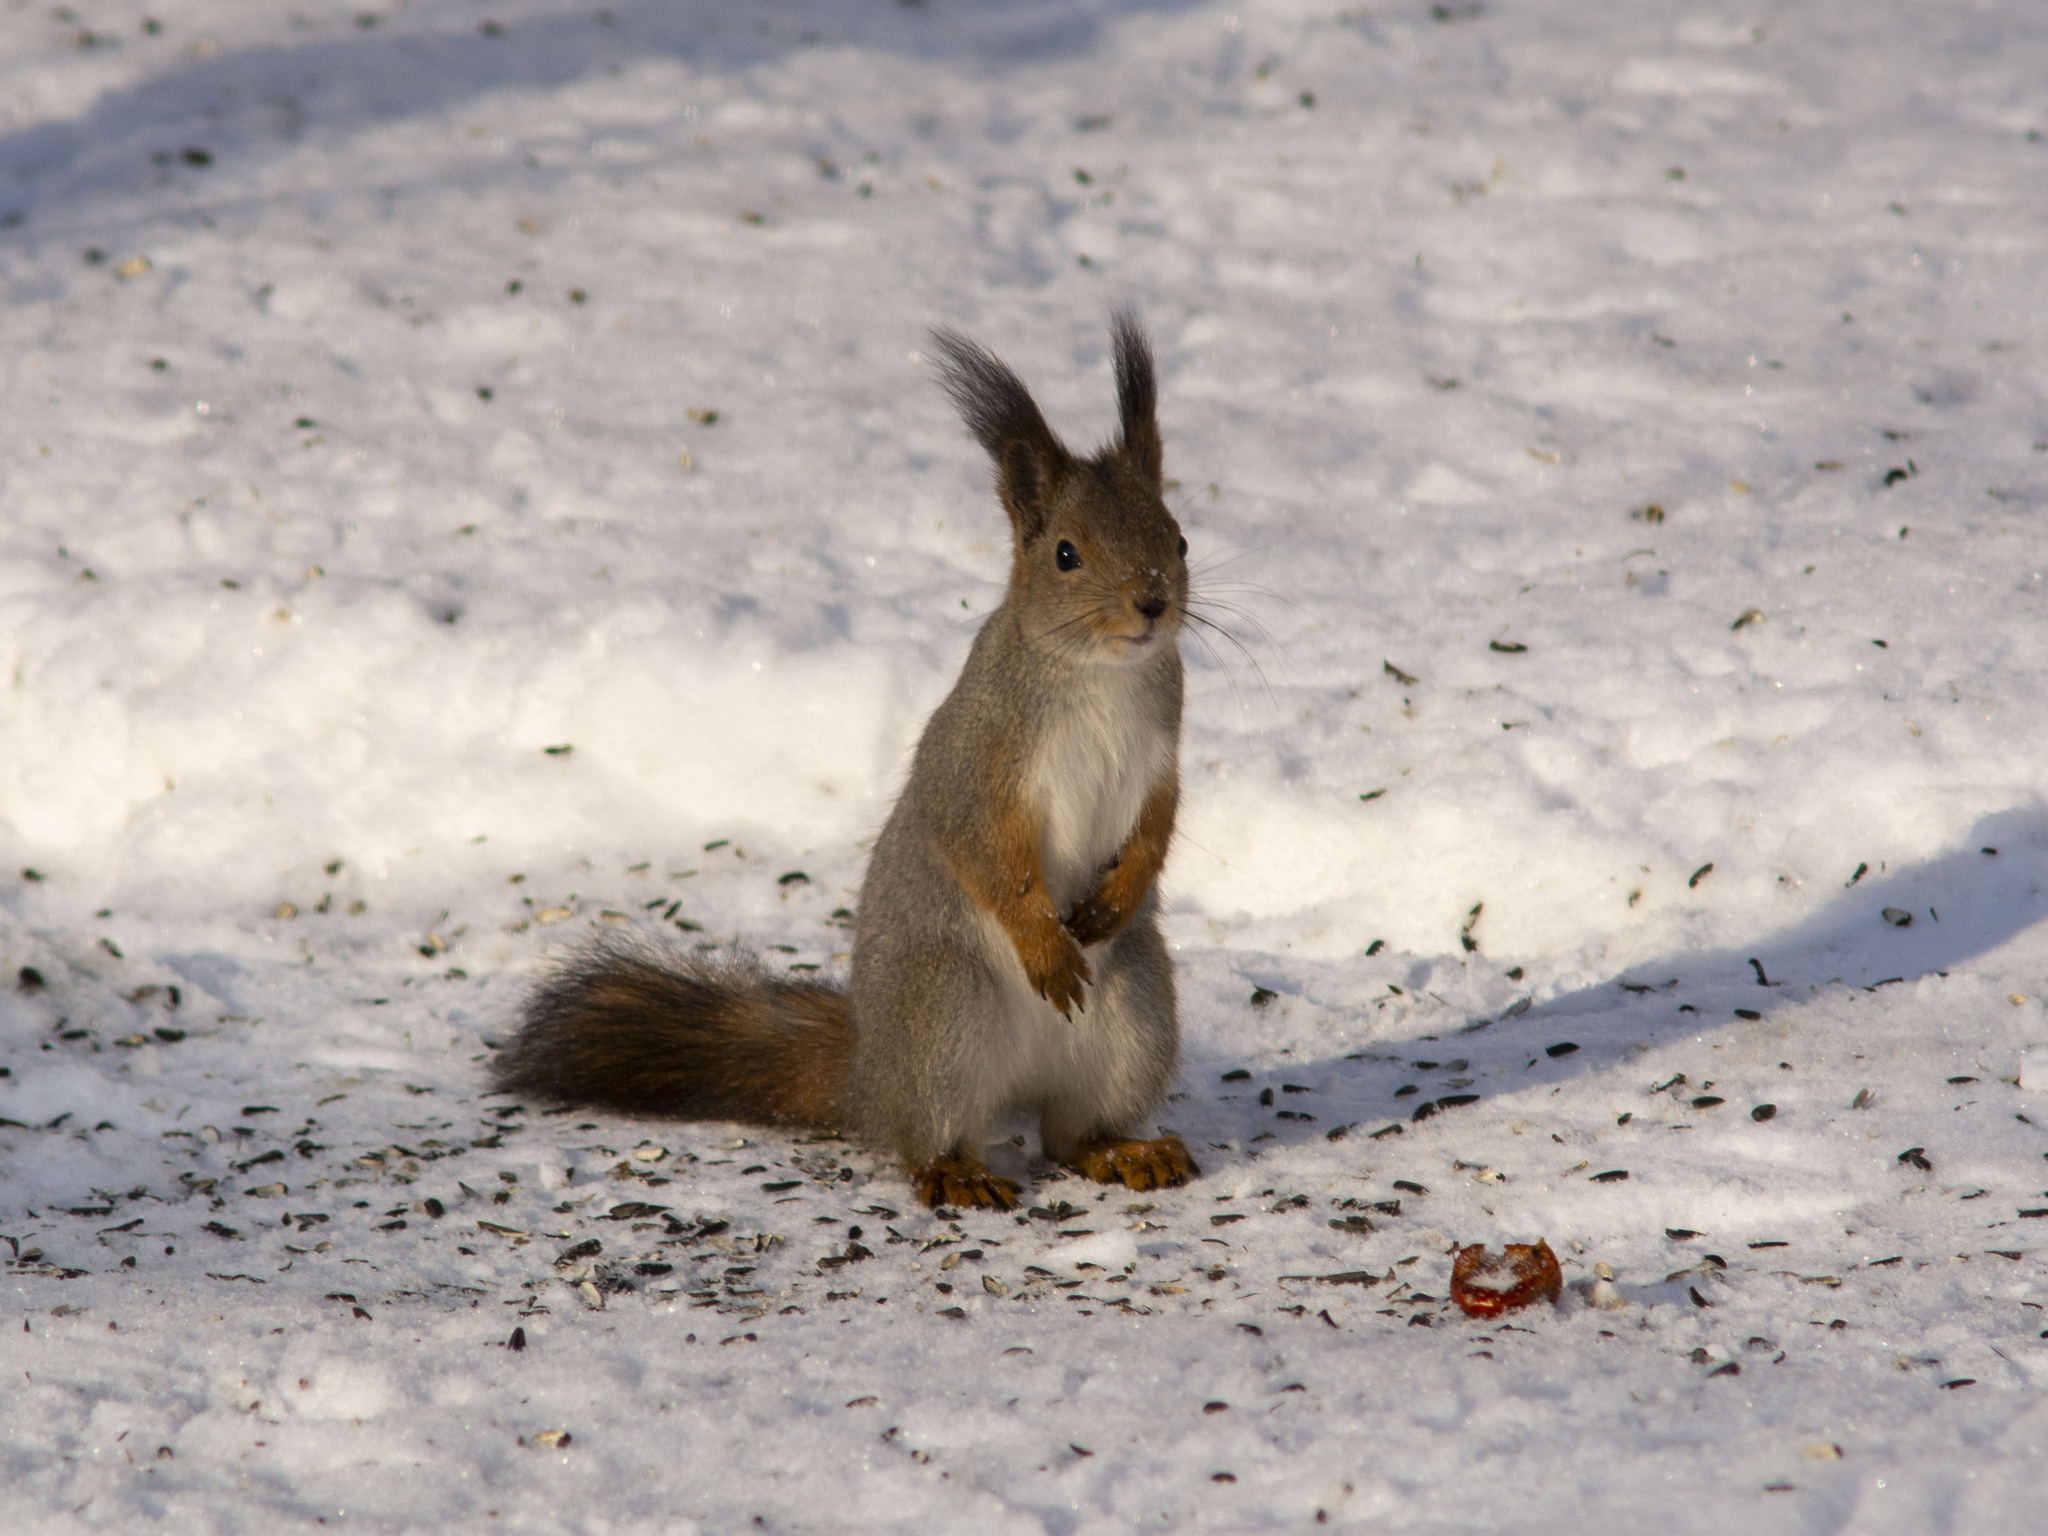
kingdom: Animalia
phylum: Chordata
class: Mammalia
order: Rodentia
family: Sciuridae
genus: Sciurus
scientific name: Sciurus vulgaris
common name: Eurasian red squirrel
